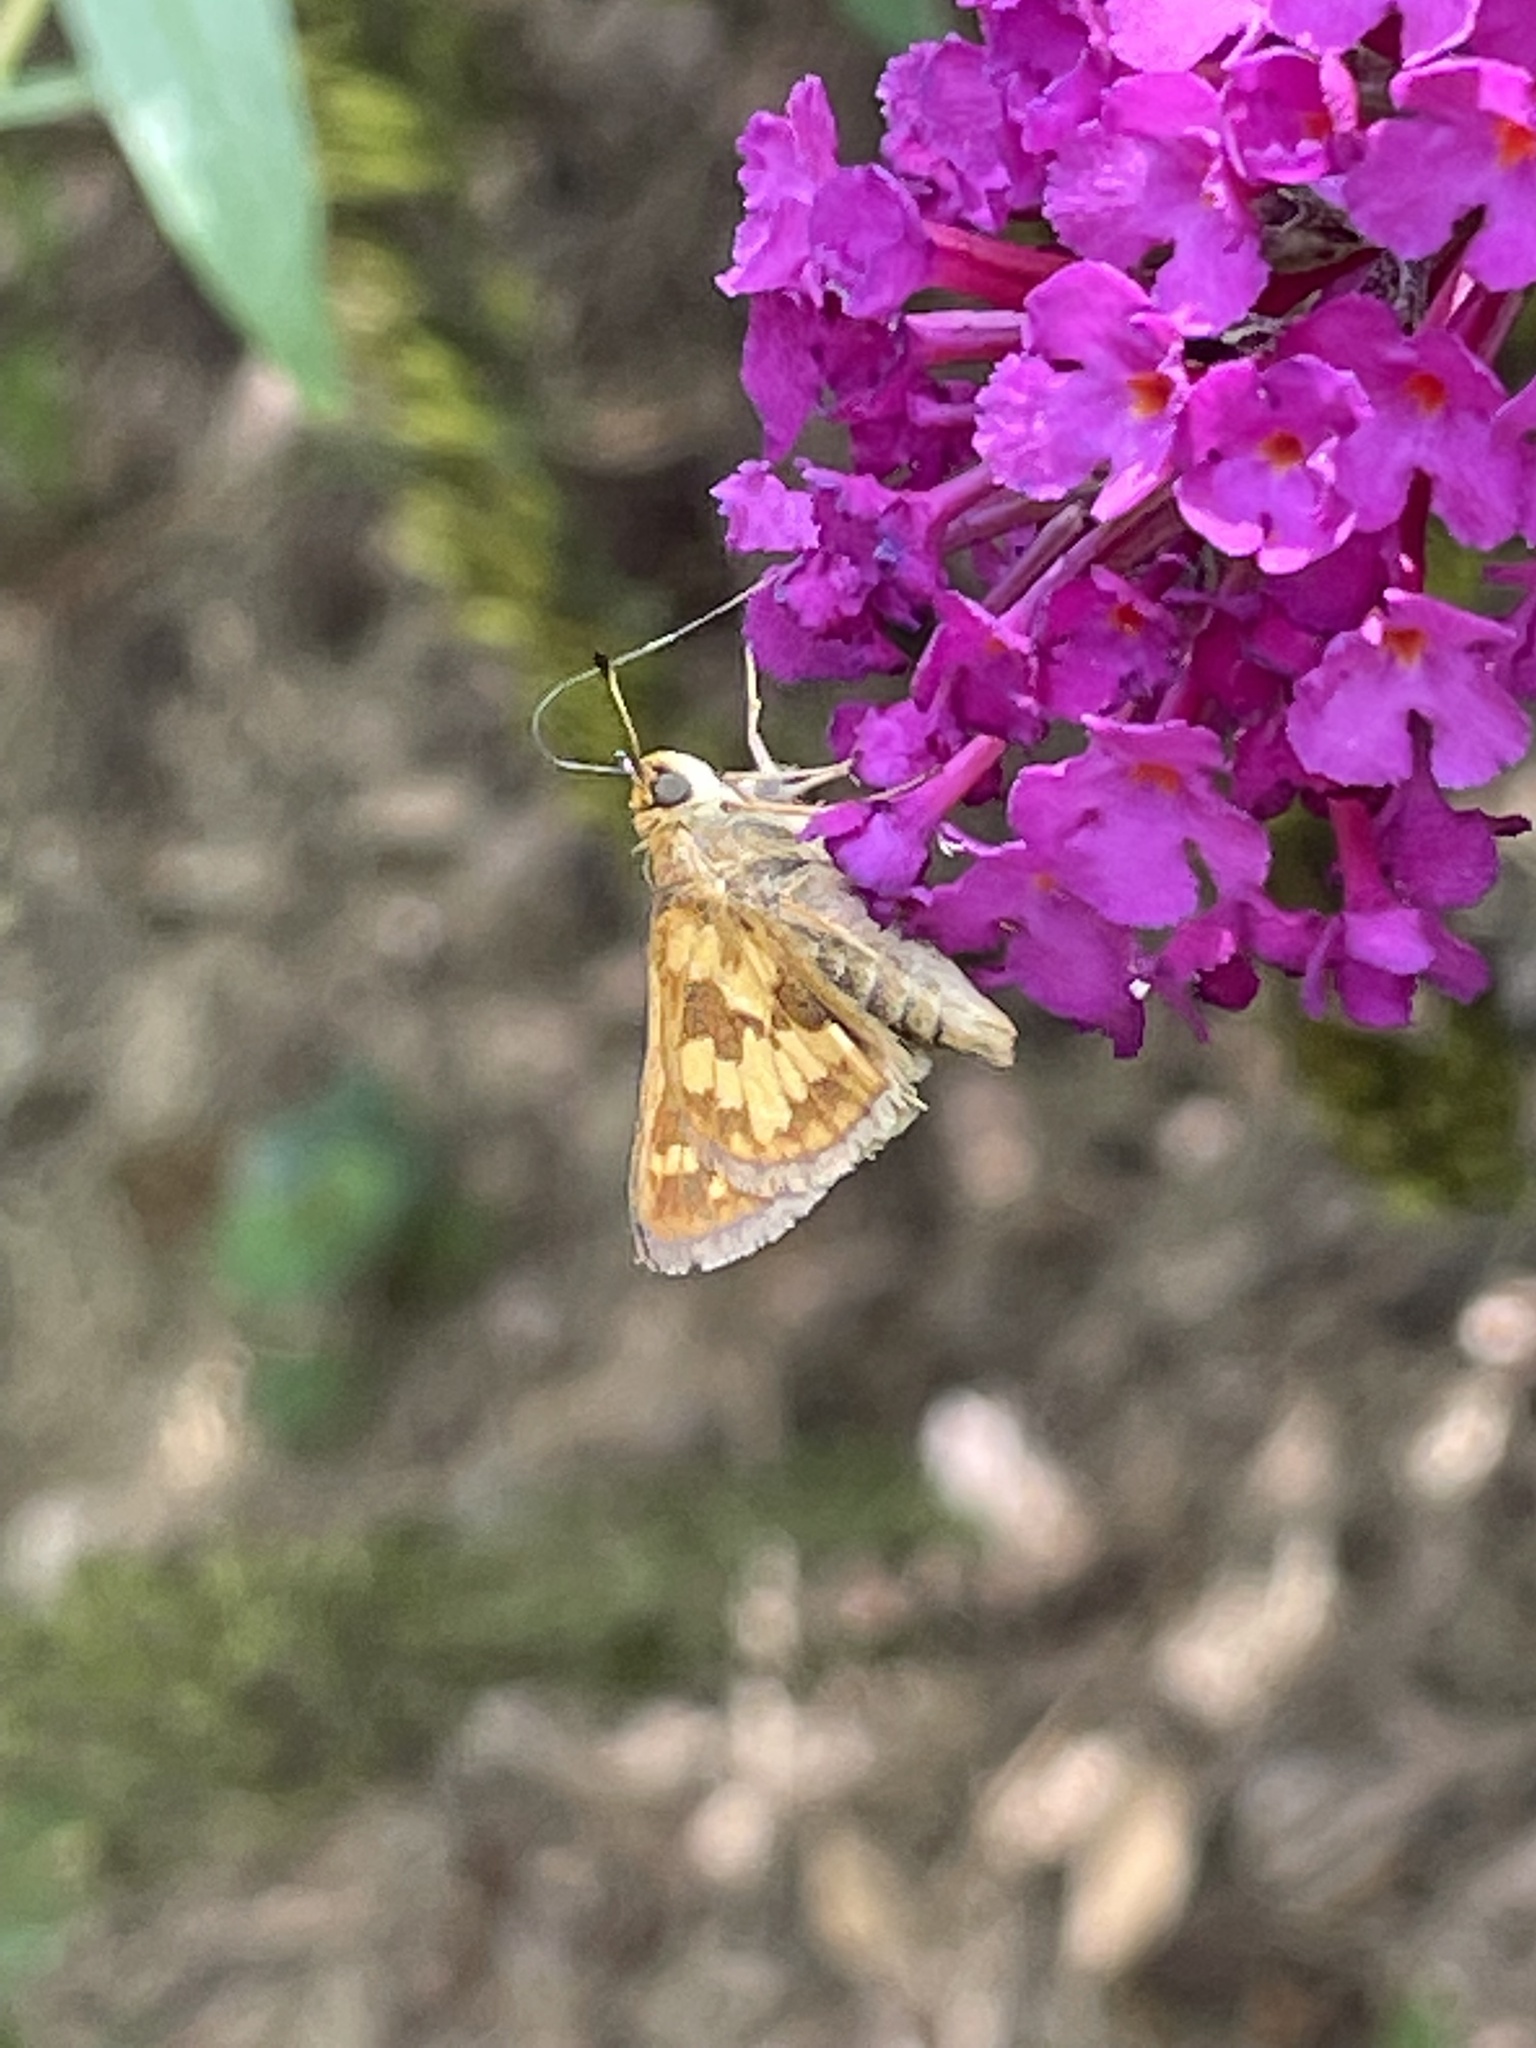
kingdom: Animalia
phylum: Arthropoda
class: Insecta
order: Lepidoptera
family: Hesperiidae
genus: Polites
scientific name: Polites coras
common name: Peck's skipper
